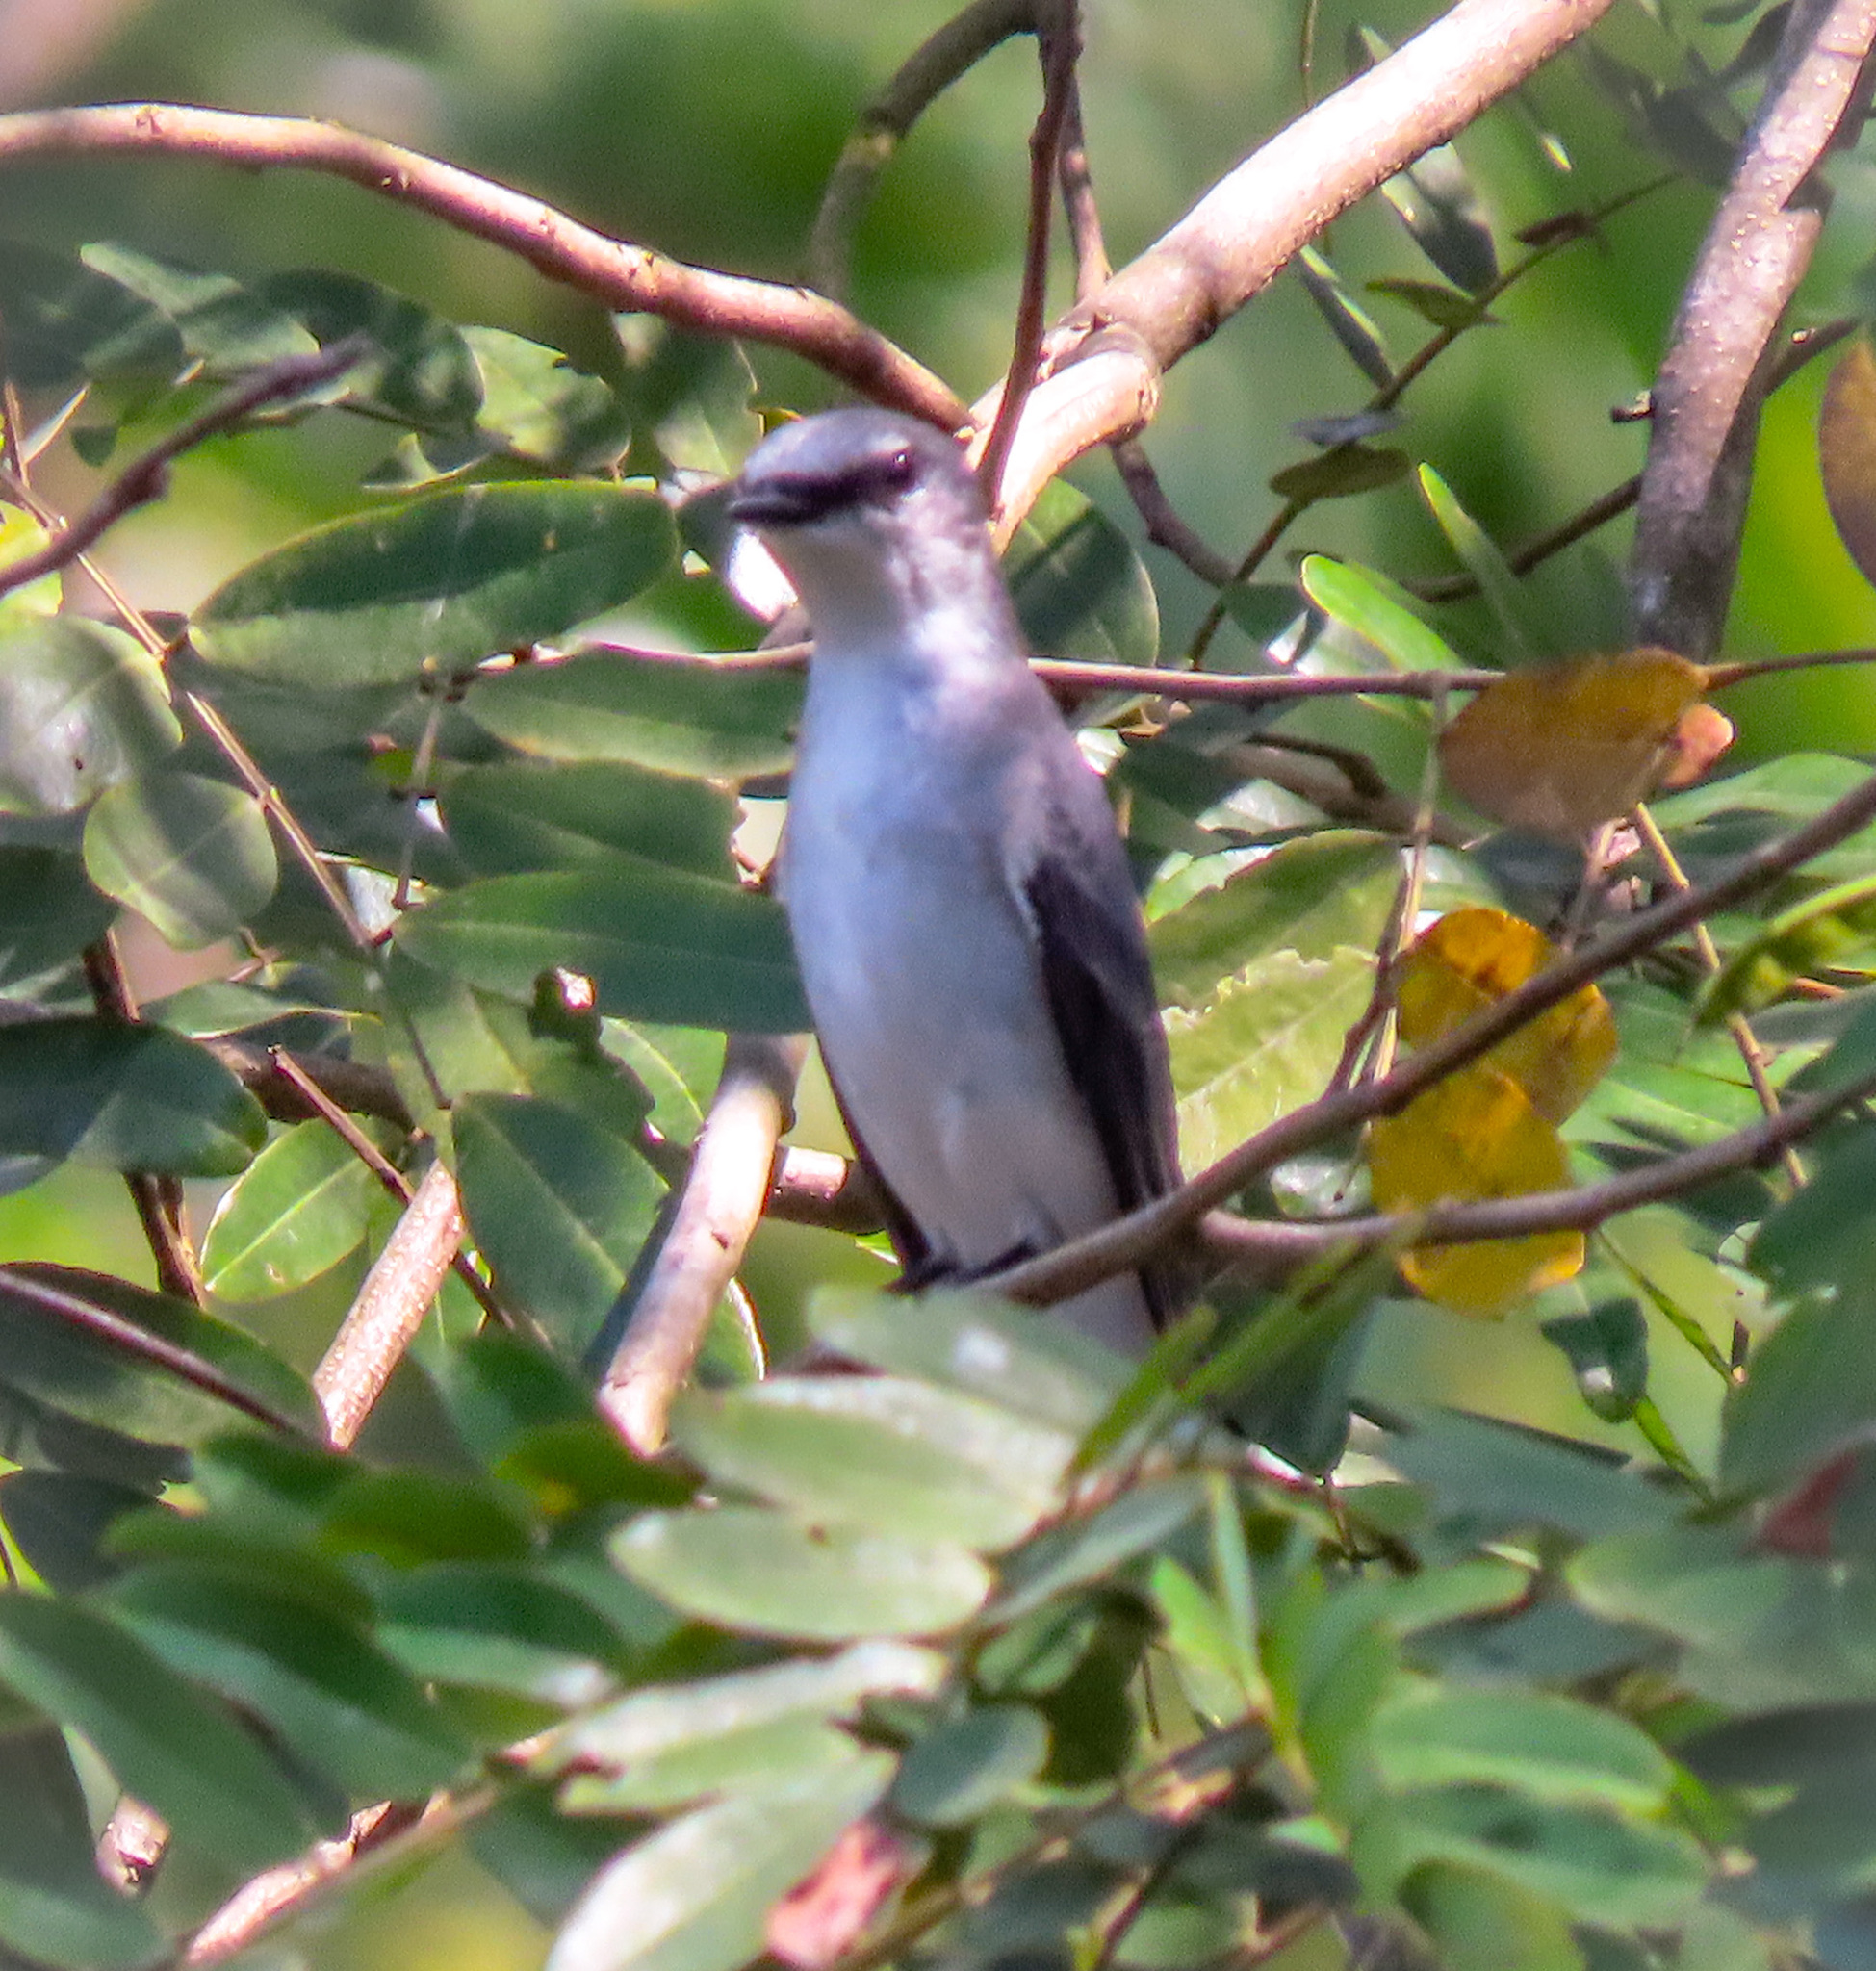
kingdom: Animalia
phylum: Chordata
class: Aves
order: Passeriformes
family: Campephagidae
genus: Pericrocotus
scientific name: Pericrocotus divaricatus
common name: Ashy minivet
